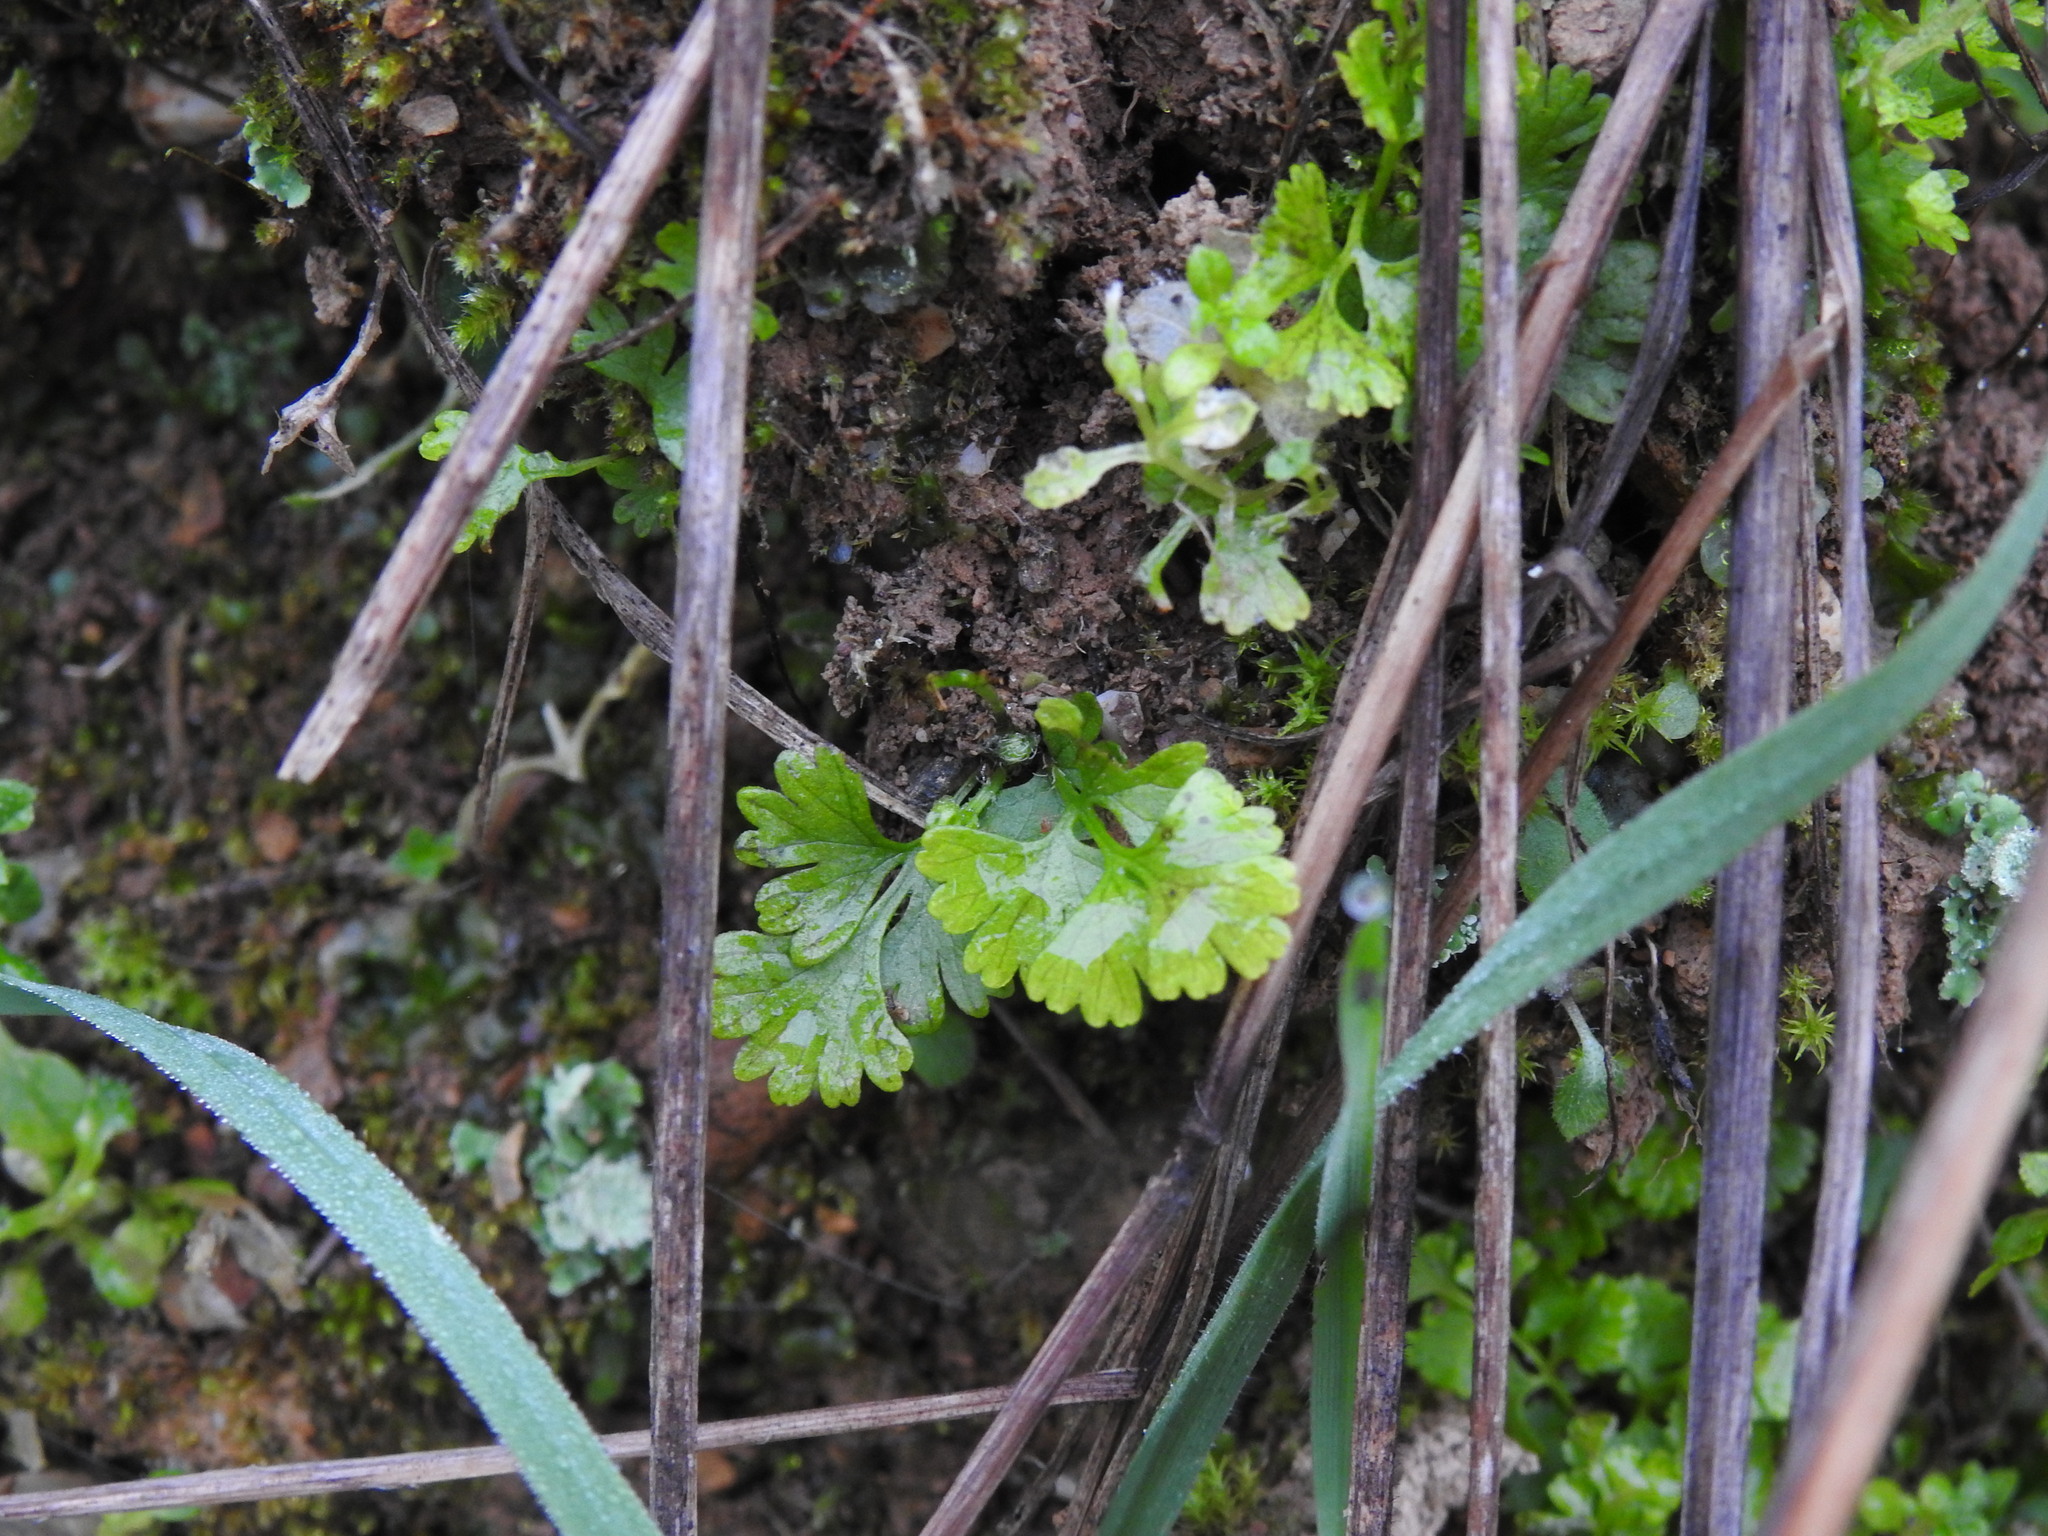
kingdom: Plantae
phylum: Tracheophyta
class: Polypodiopsida
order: Polypodiales
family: Pteridaceae
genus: Anogramma
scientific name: Anogramma leptophylla
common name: Jersey fern
